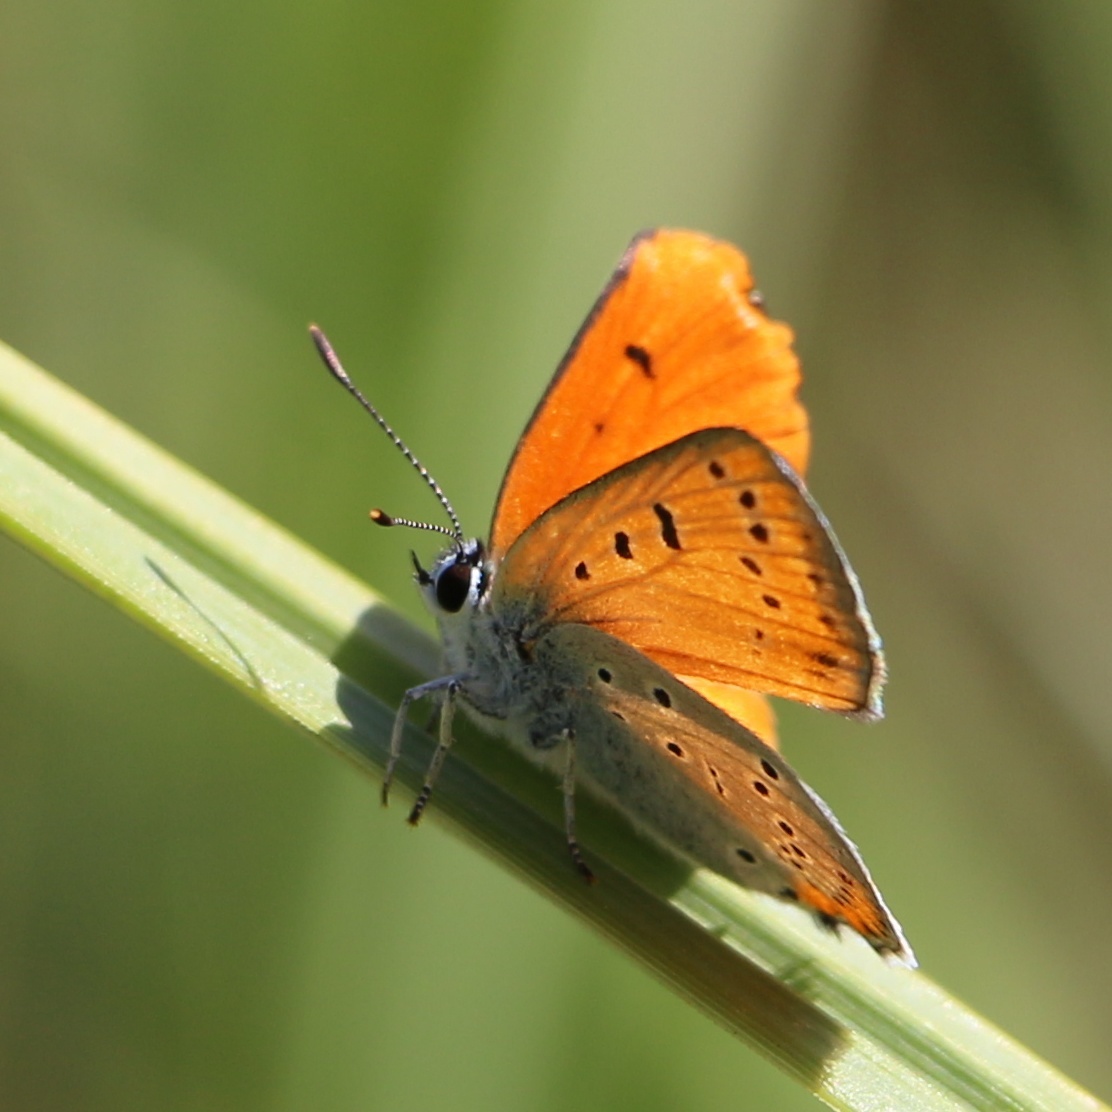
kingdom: Animalia
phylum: Arthropoda
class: Insecta
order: Lepidoptera
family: Lycaenidae
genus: Lycaena
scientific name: Lycaena dispar
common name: Large copper
